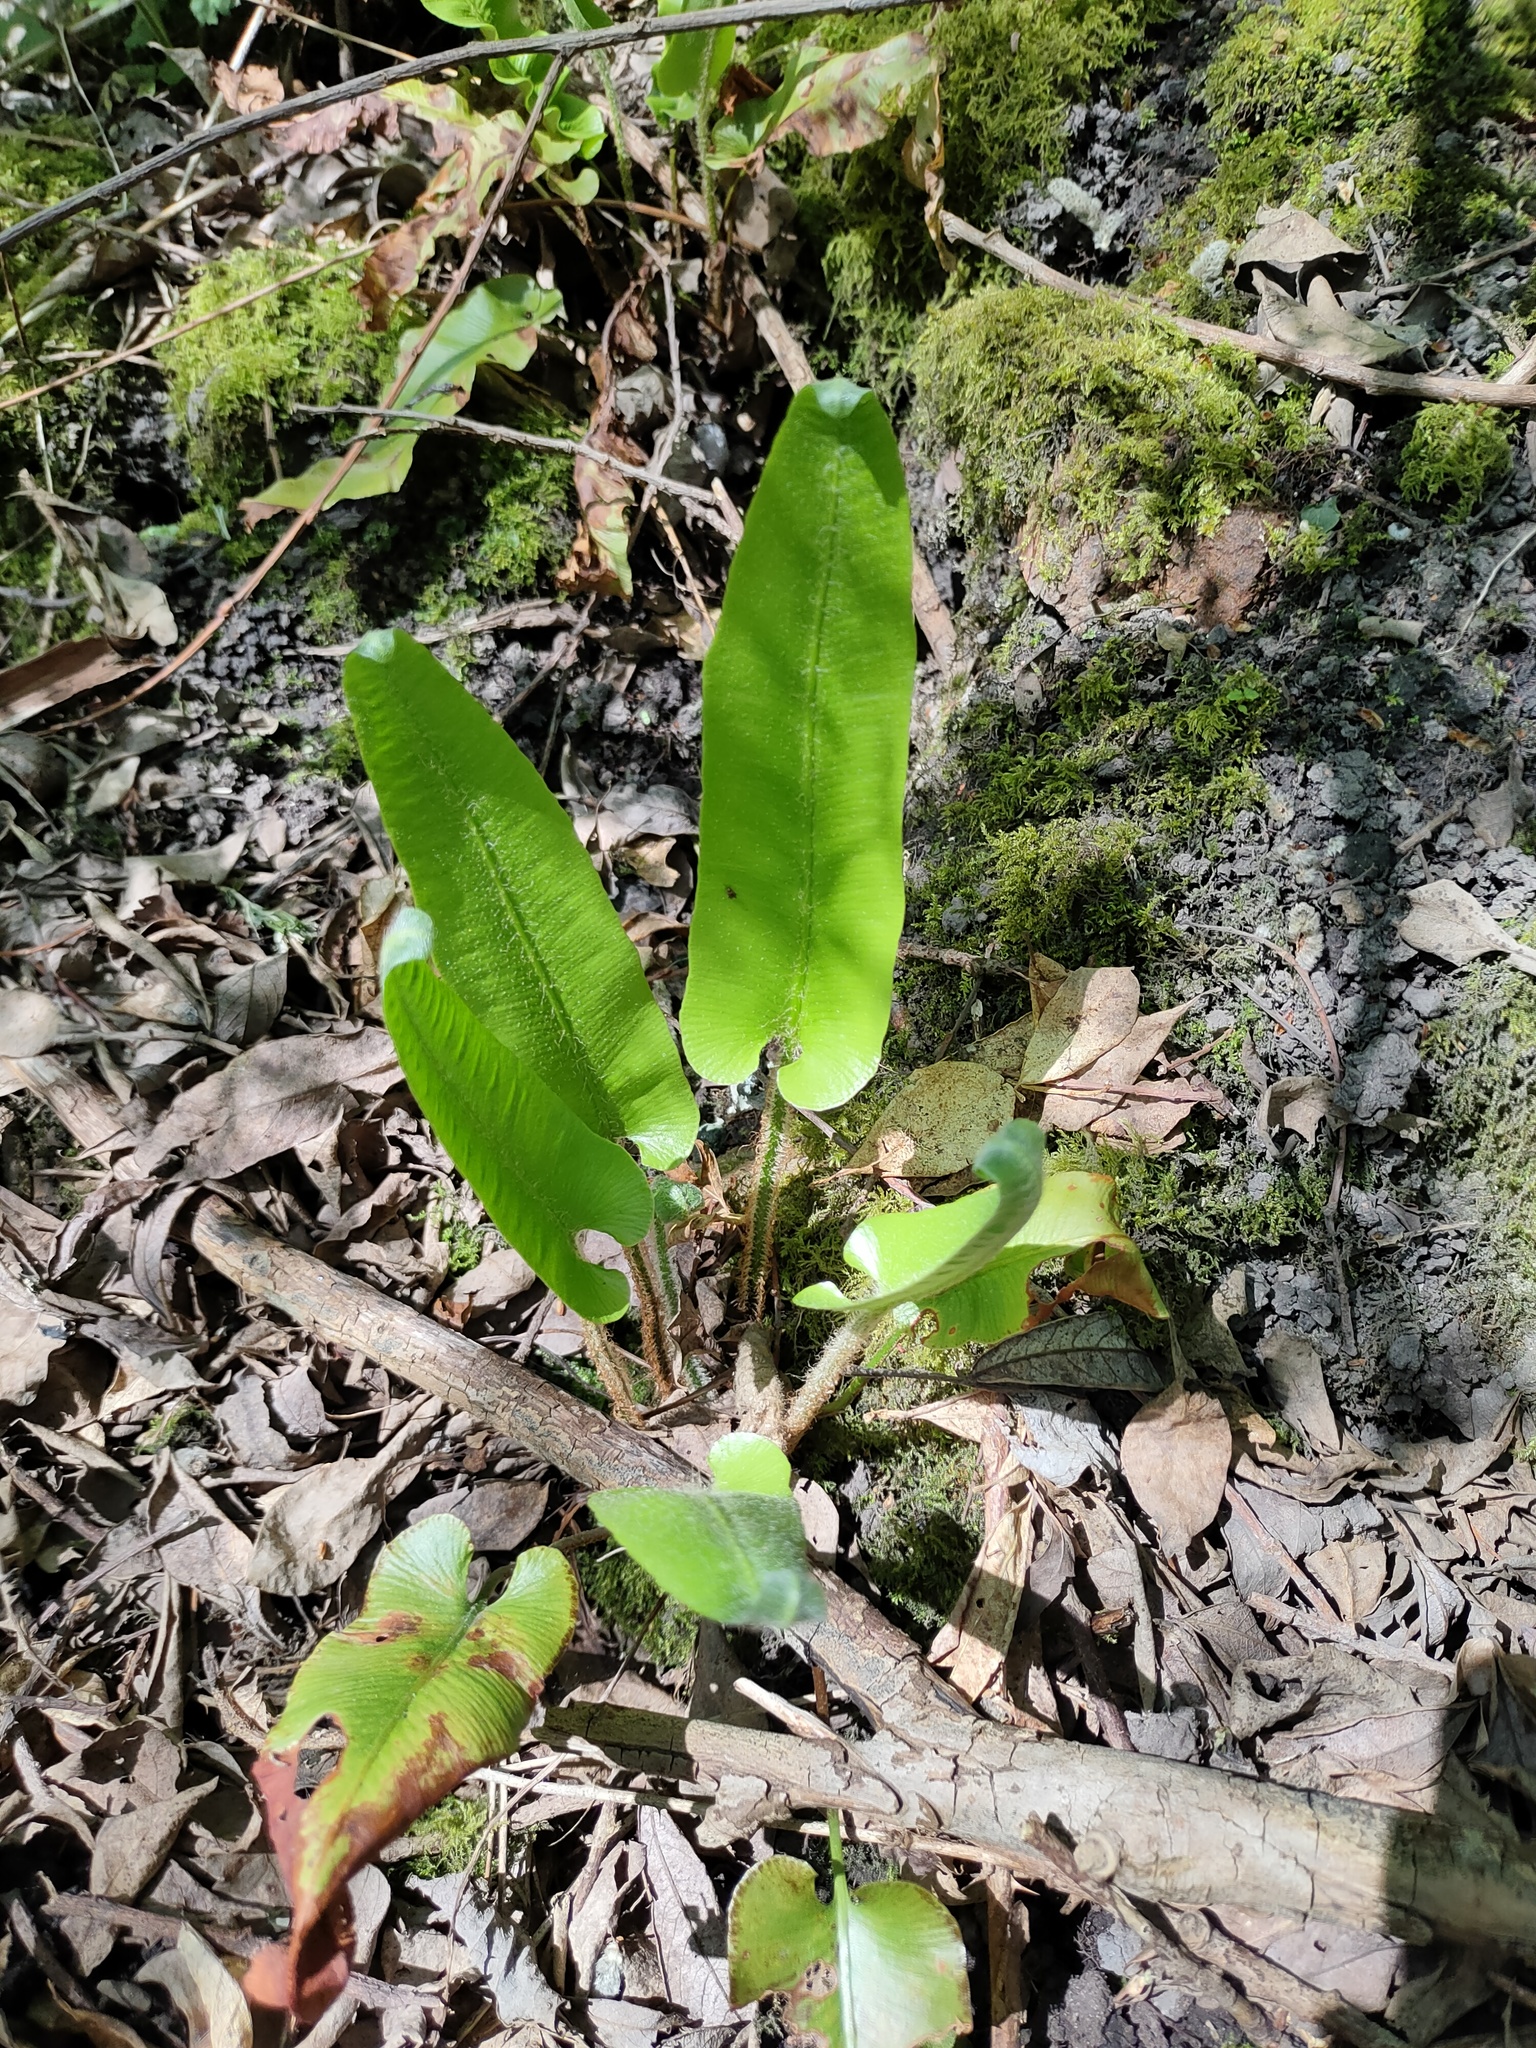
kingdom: Plantae
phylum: Tracheophyta
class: Polypodiopsida
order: Polypodiales
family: Aspleniaceae
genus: Asplenium
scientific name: Asplenium scolopendrium
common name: Hart's-tongue fern
